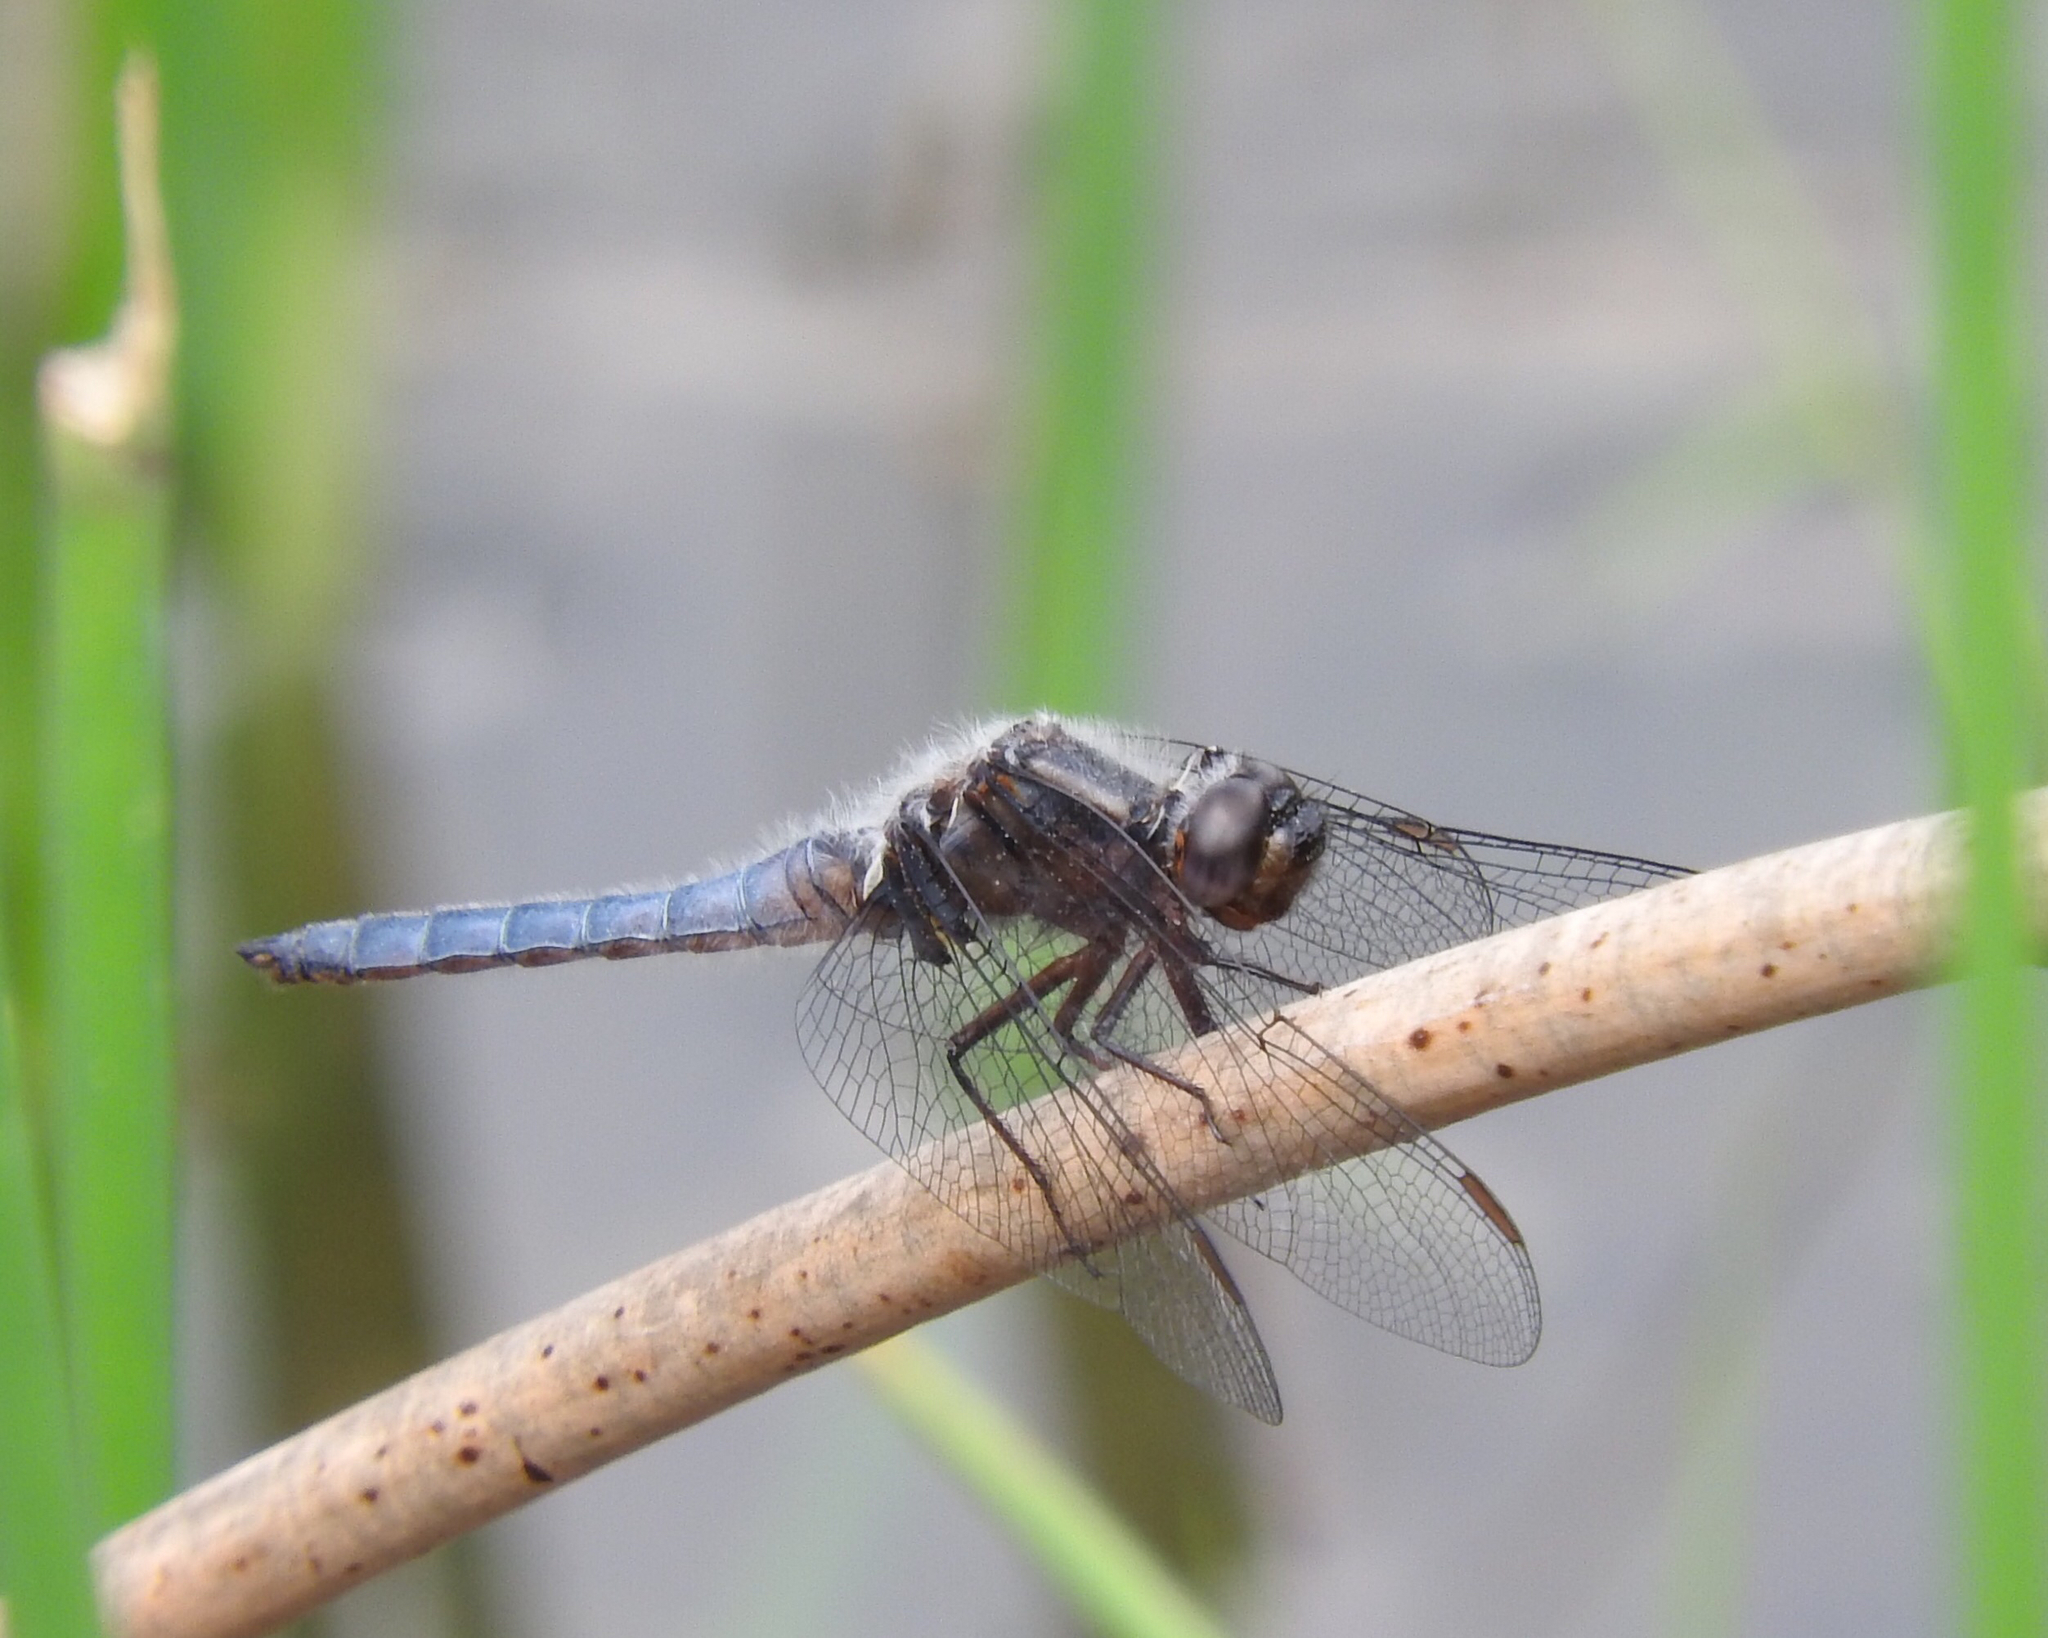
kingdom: Animalia
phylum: Arthropoda
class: Insecta
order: Odonata
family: Libellulidae
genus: Ladona
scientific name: Ladona deplanata
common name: Blue corporal
